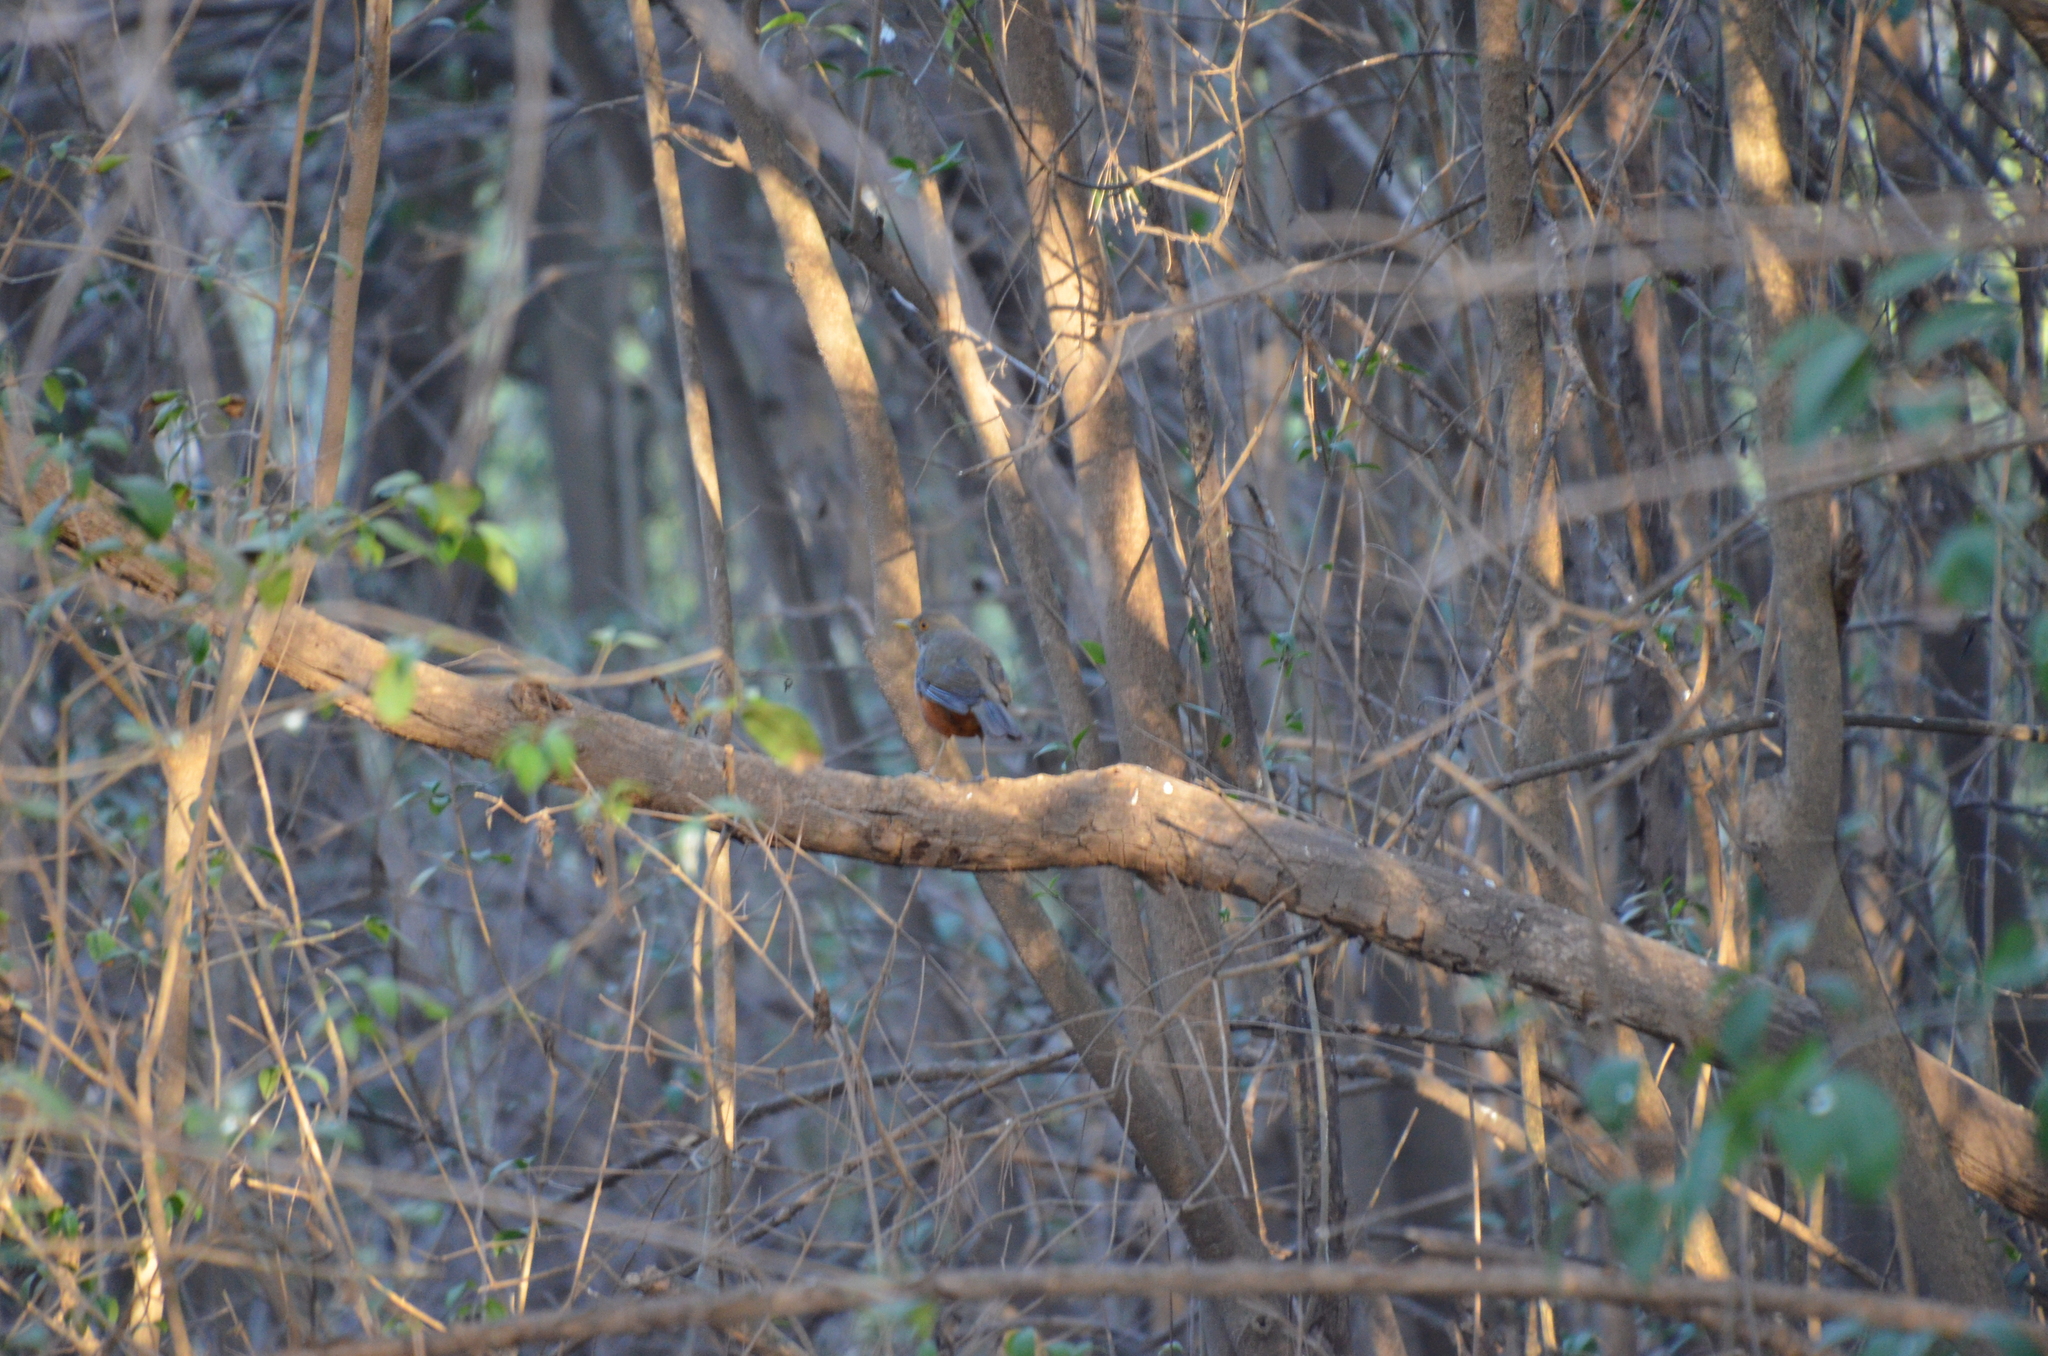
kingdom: Animalia
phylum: Chordata
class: Aves
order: Passeriformes
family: Turdidae
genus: Turdus
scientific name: Turdus rufiventris
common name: Rufous-bellied thrush
